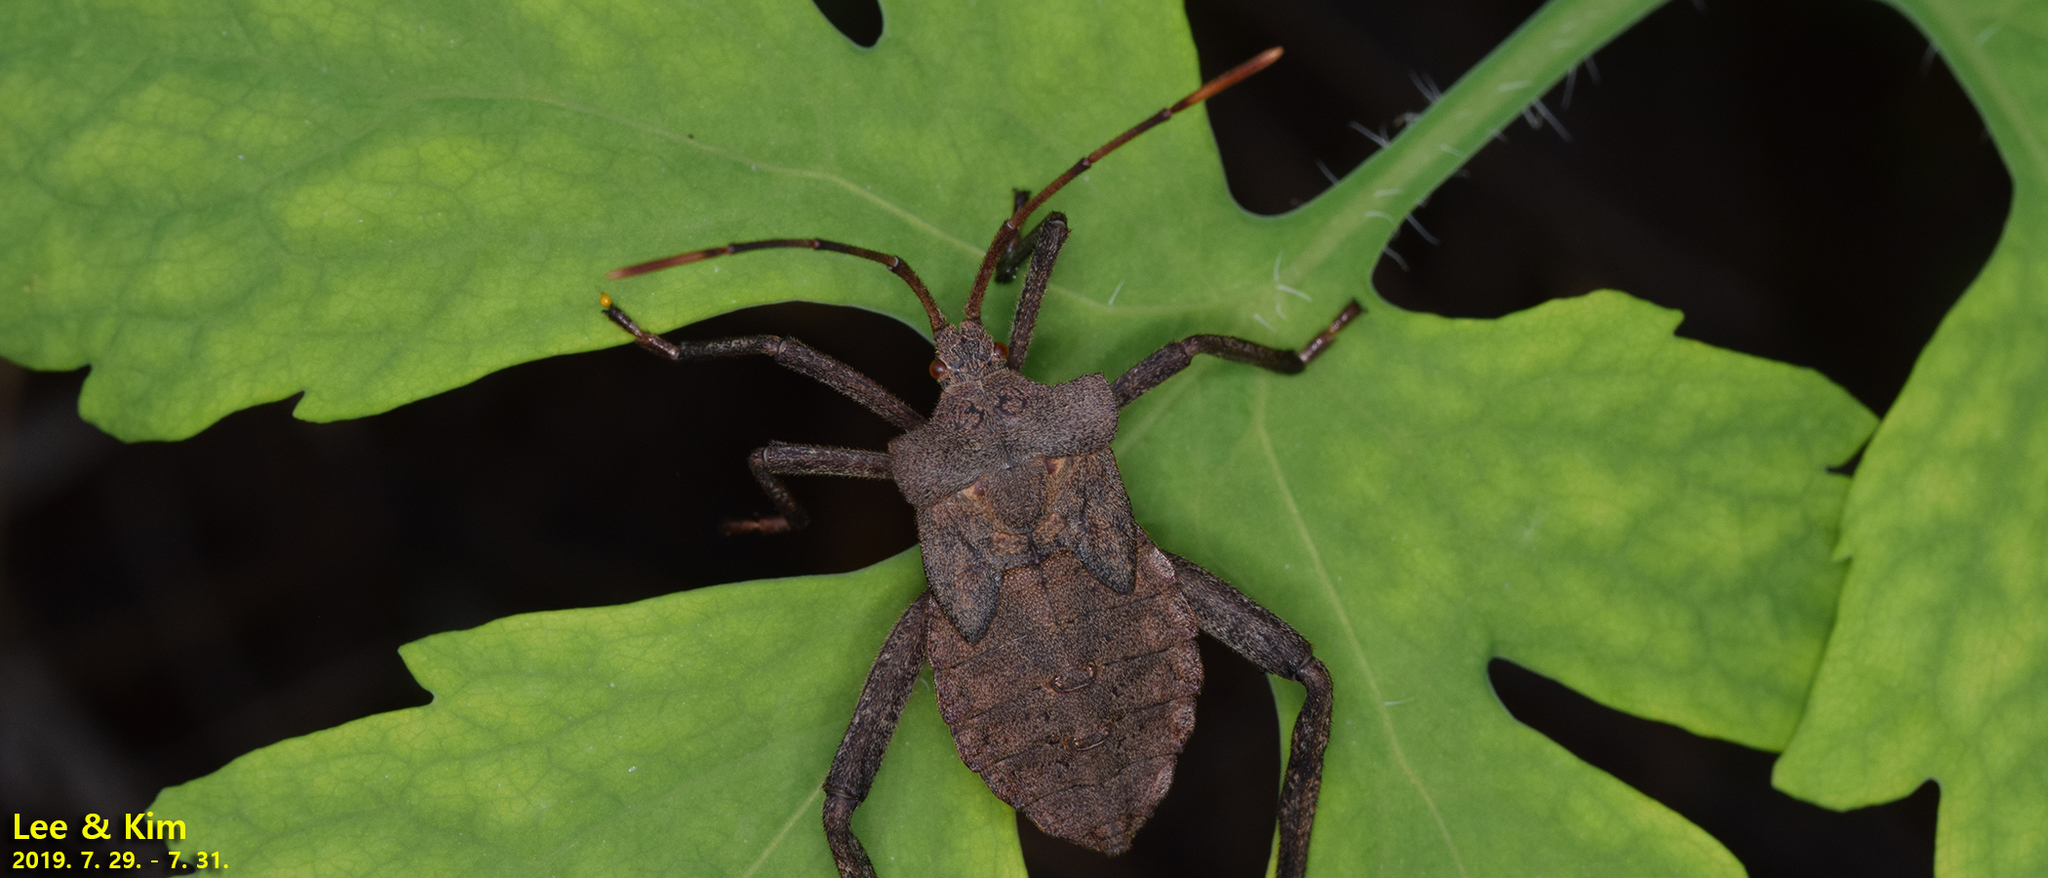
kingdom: Animalia
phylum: Arthropoda
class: Insecta
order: Hemiptera
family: Coreidae
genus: Molipteryx
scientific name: Molipteryx fuliginosa
